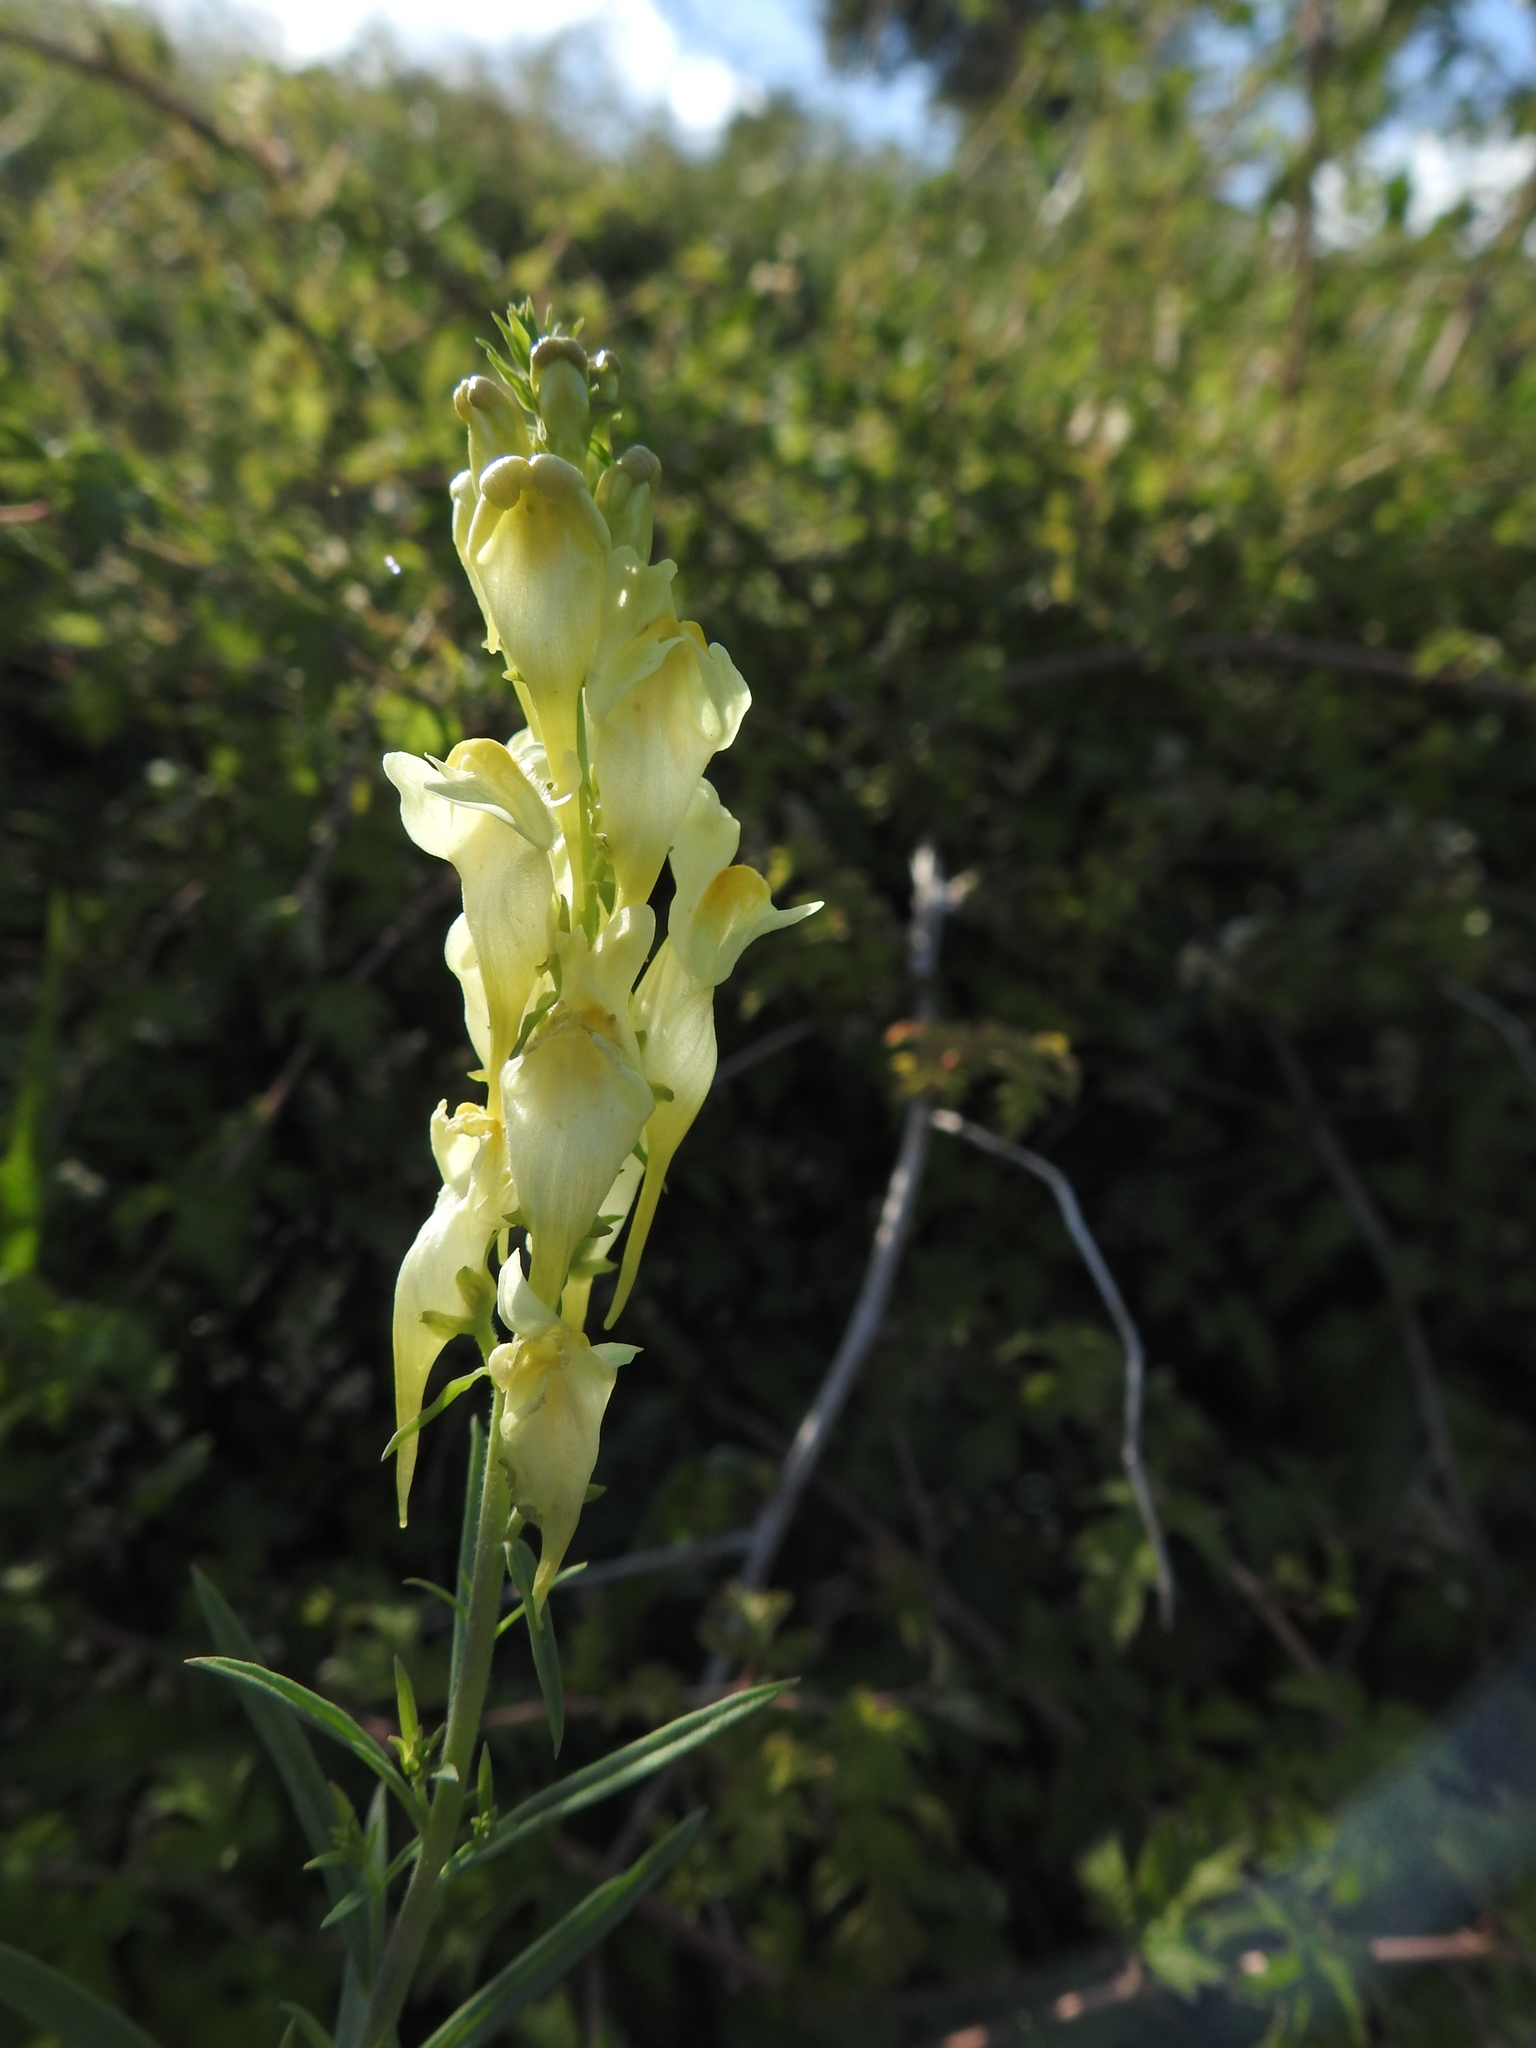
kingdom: Plantae
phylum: Tracheophyta
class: Magnoliopsida
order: Lamiales
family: Plantaginaceae
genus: Linaria
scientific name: Linaria vulgaris
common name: Butter and eggs
